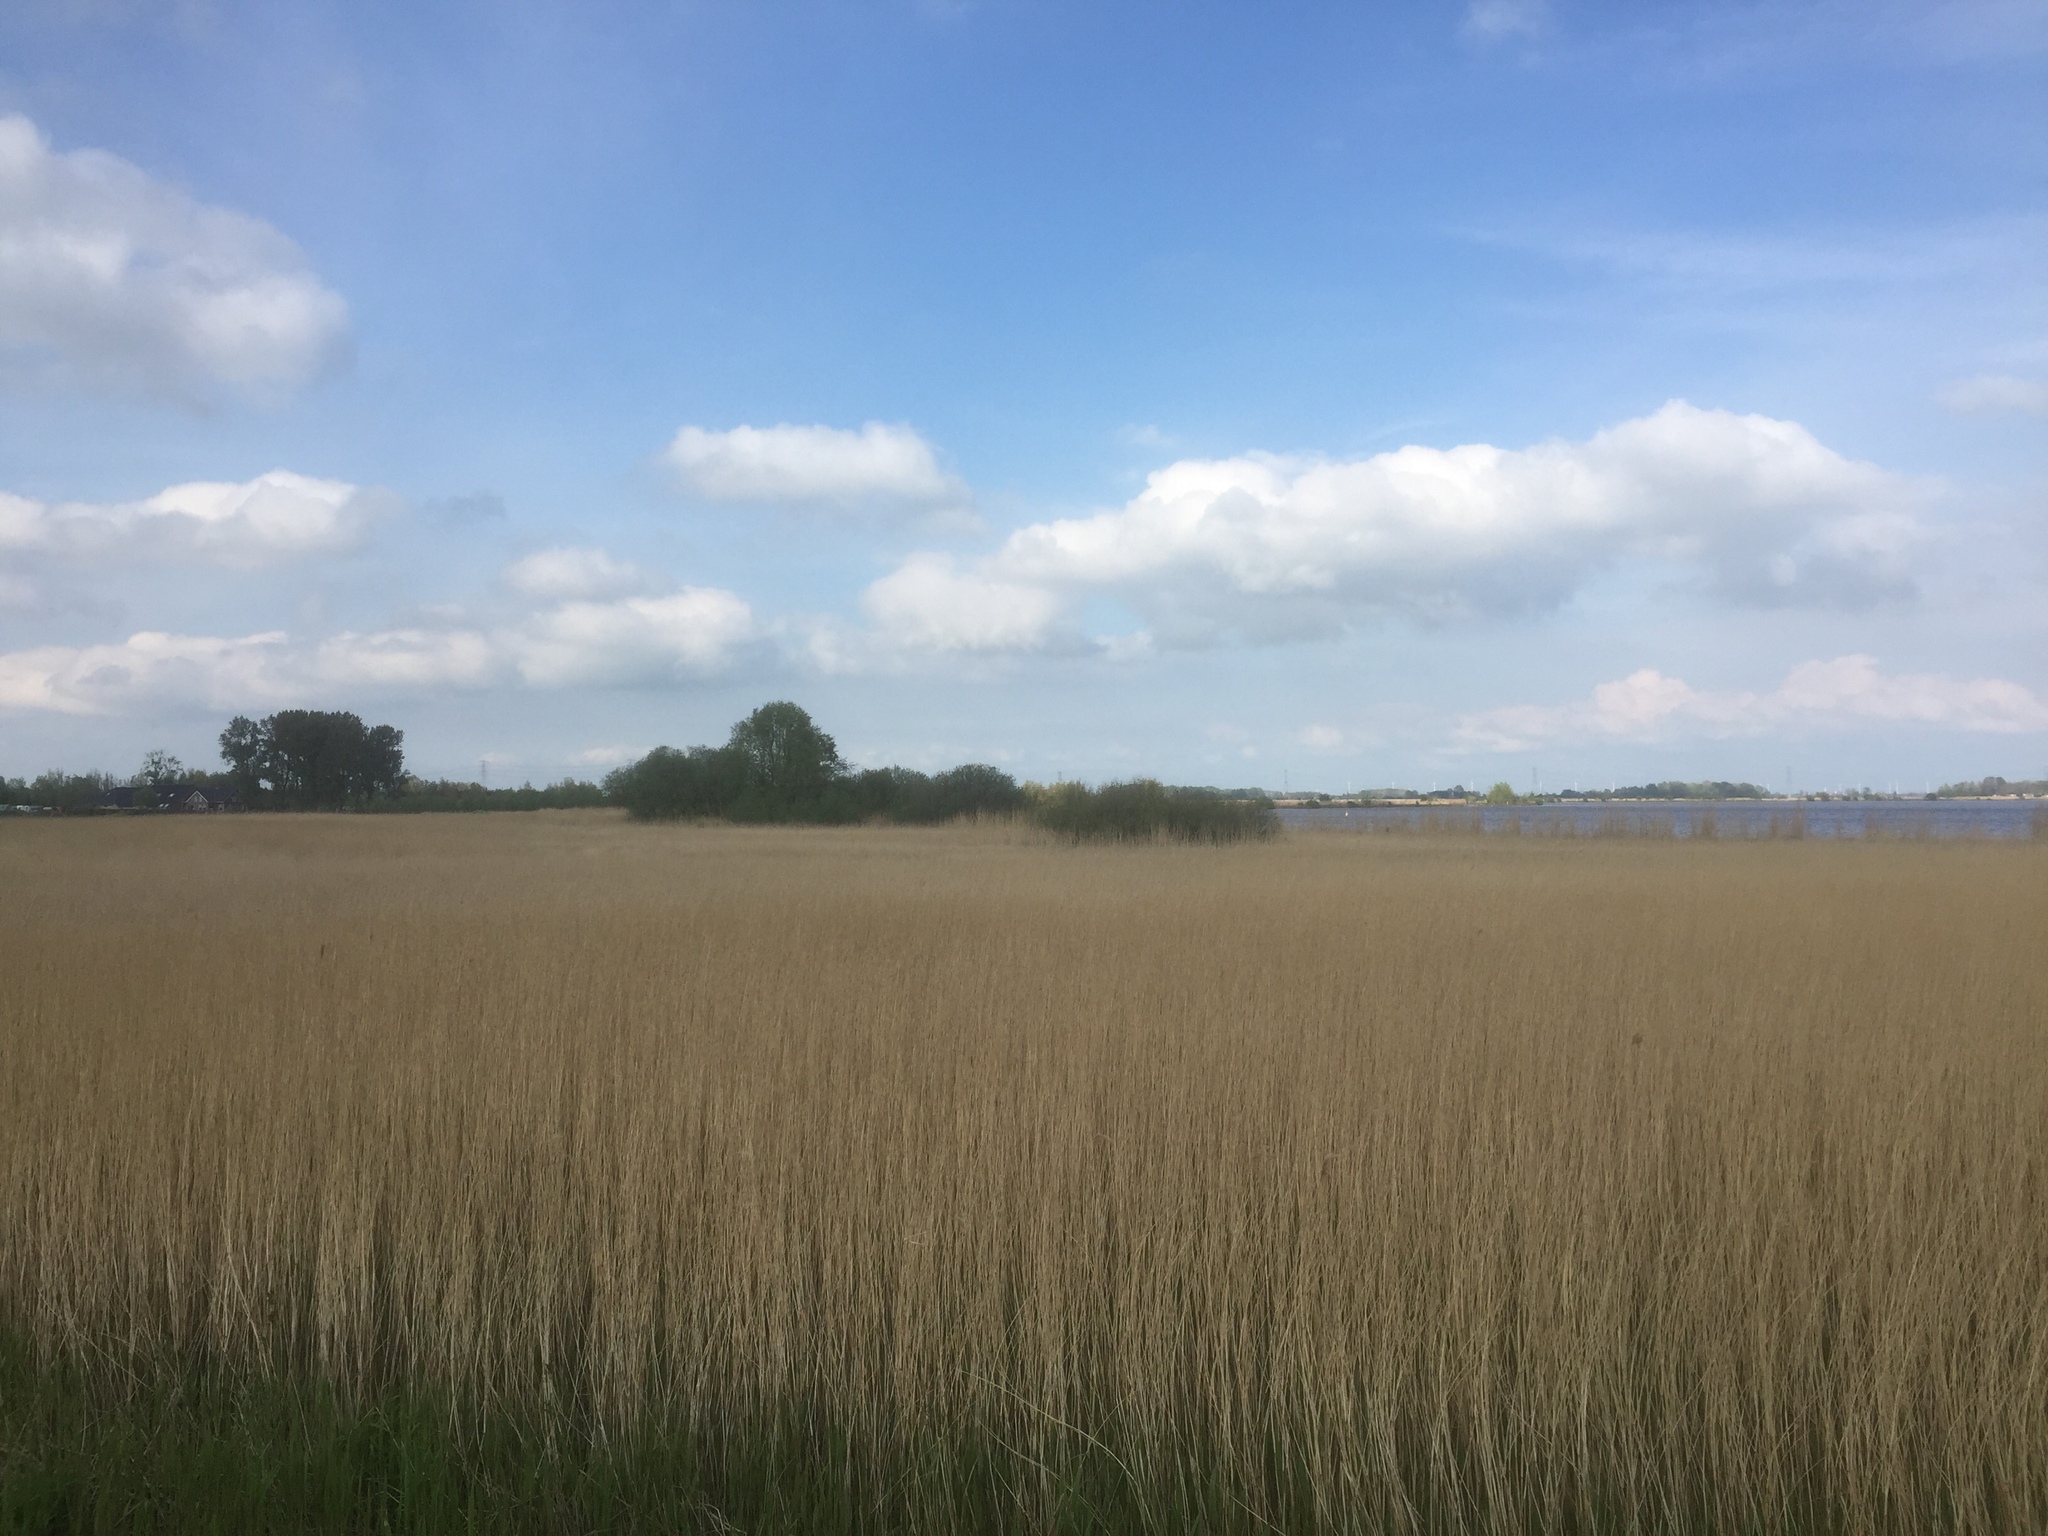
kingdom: Plantae
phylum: Tracheophyta
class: Liliopsida
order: Poales
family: Poaceae
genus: Phragmites
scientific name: Phragmites australis
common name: Common reed
